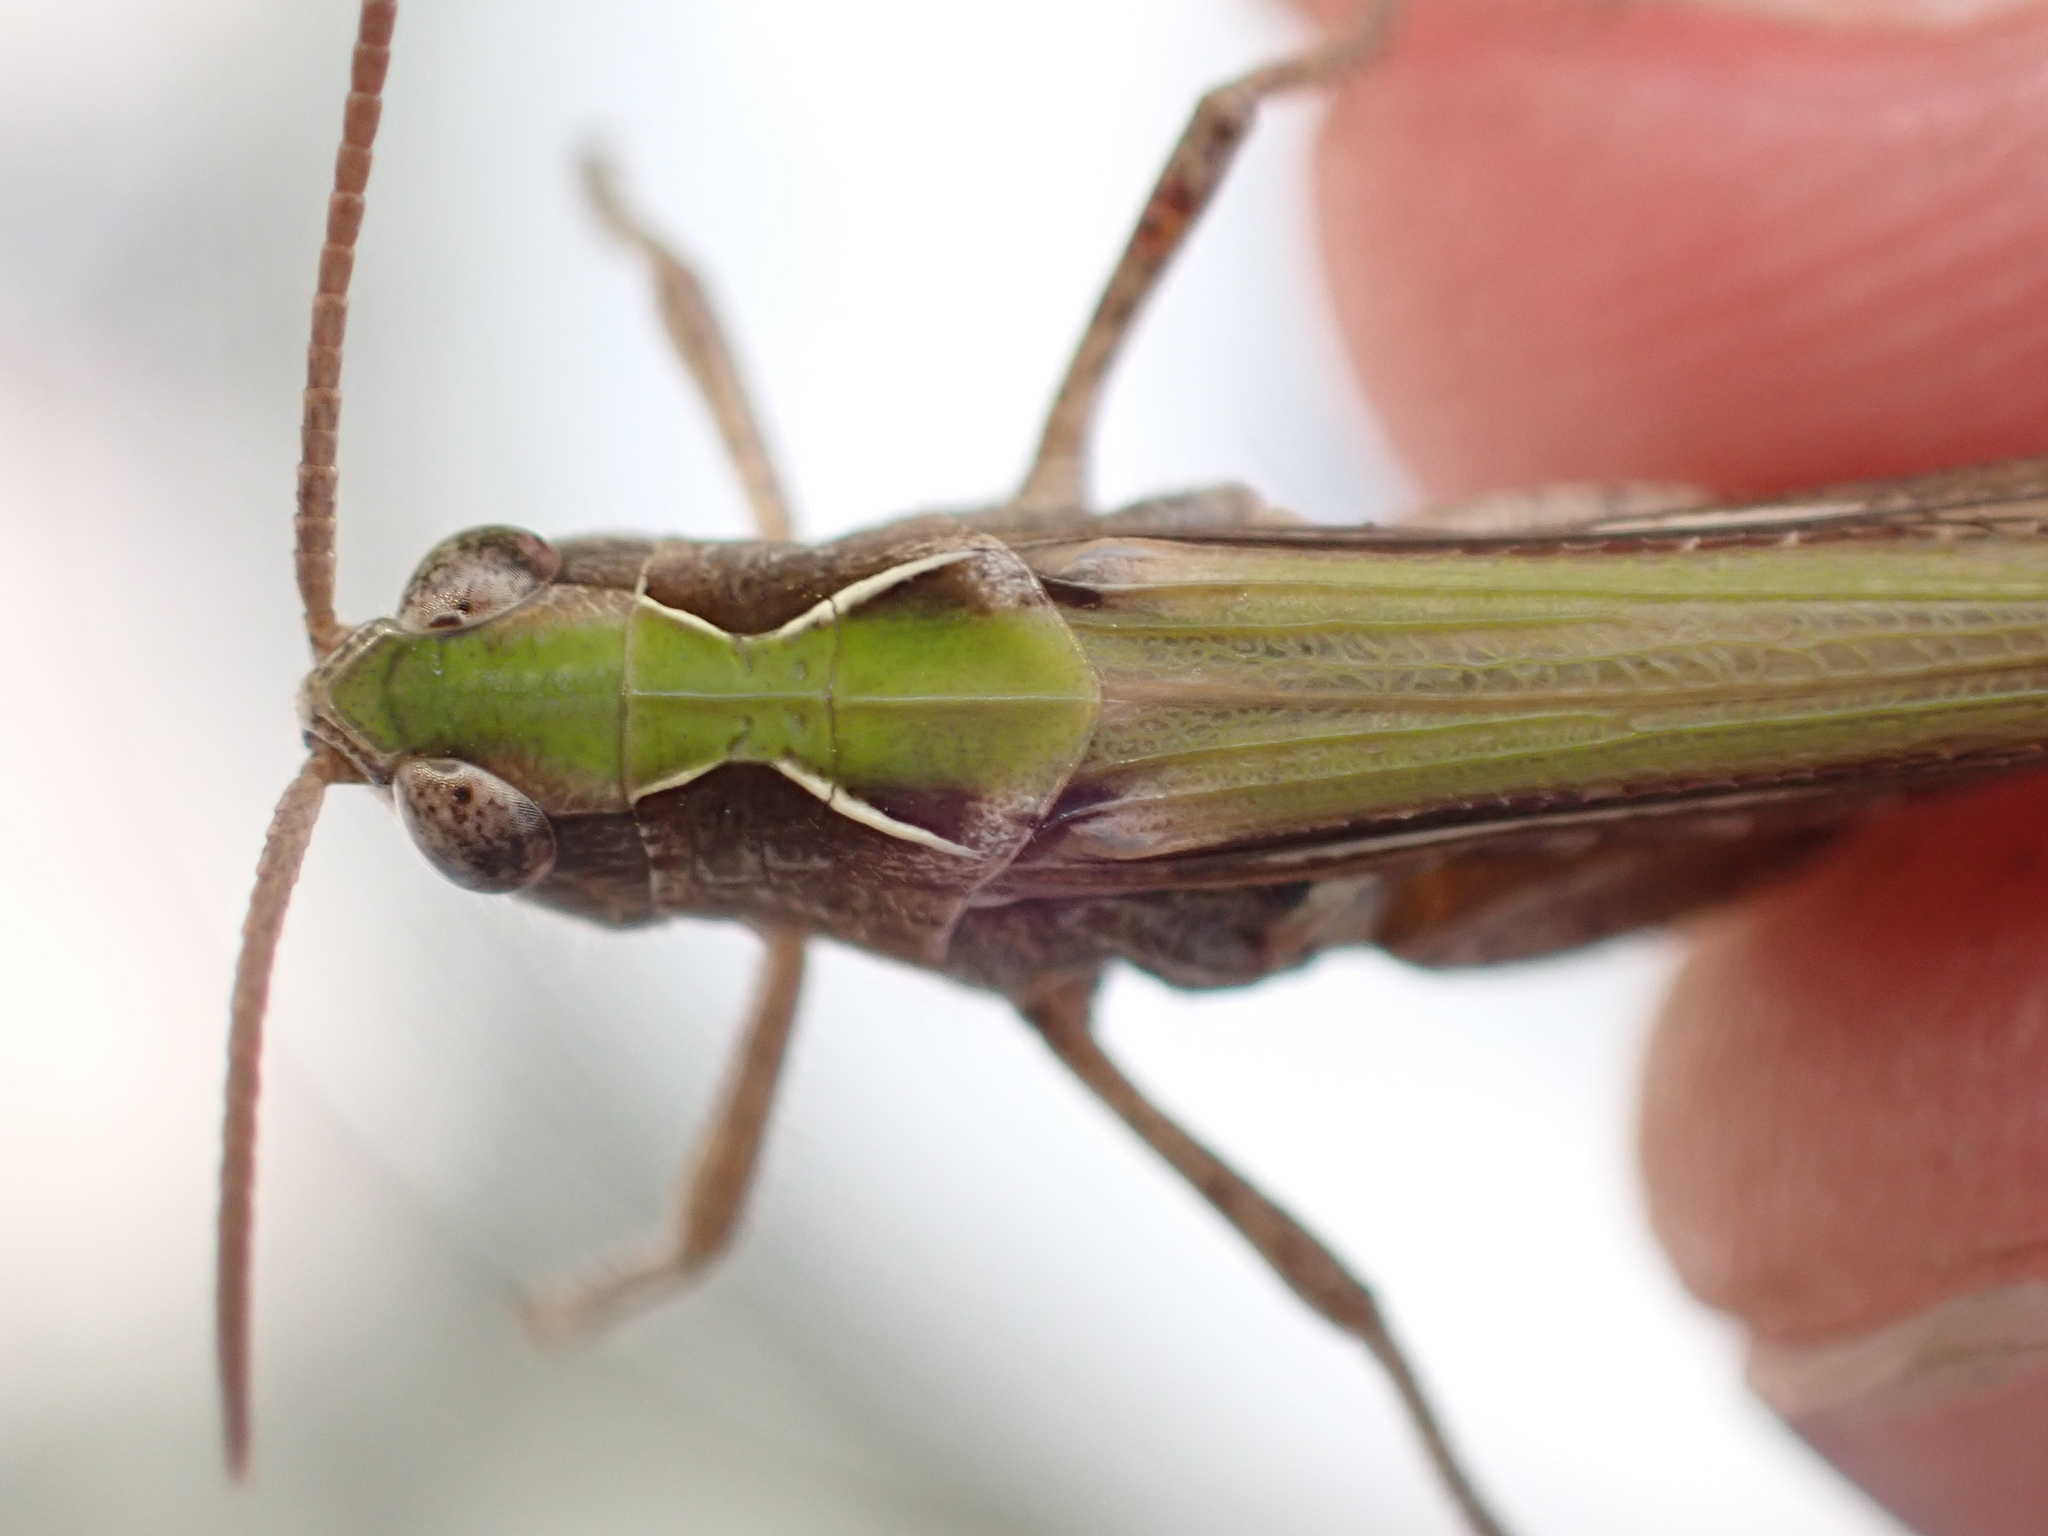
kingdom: Animalia
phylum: Arthropoda
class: Insecta
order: Orthoptera
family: Acrididae
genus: Glyptobothrus
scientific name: Glyptobothrus
